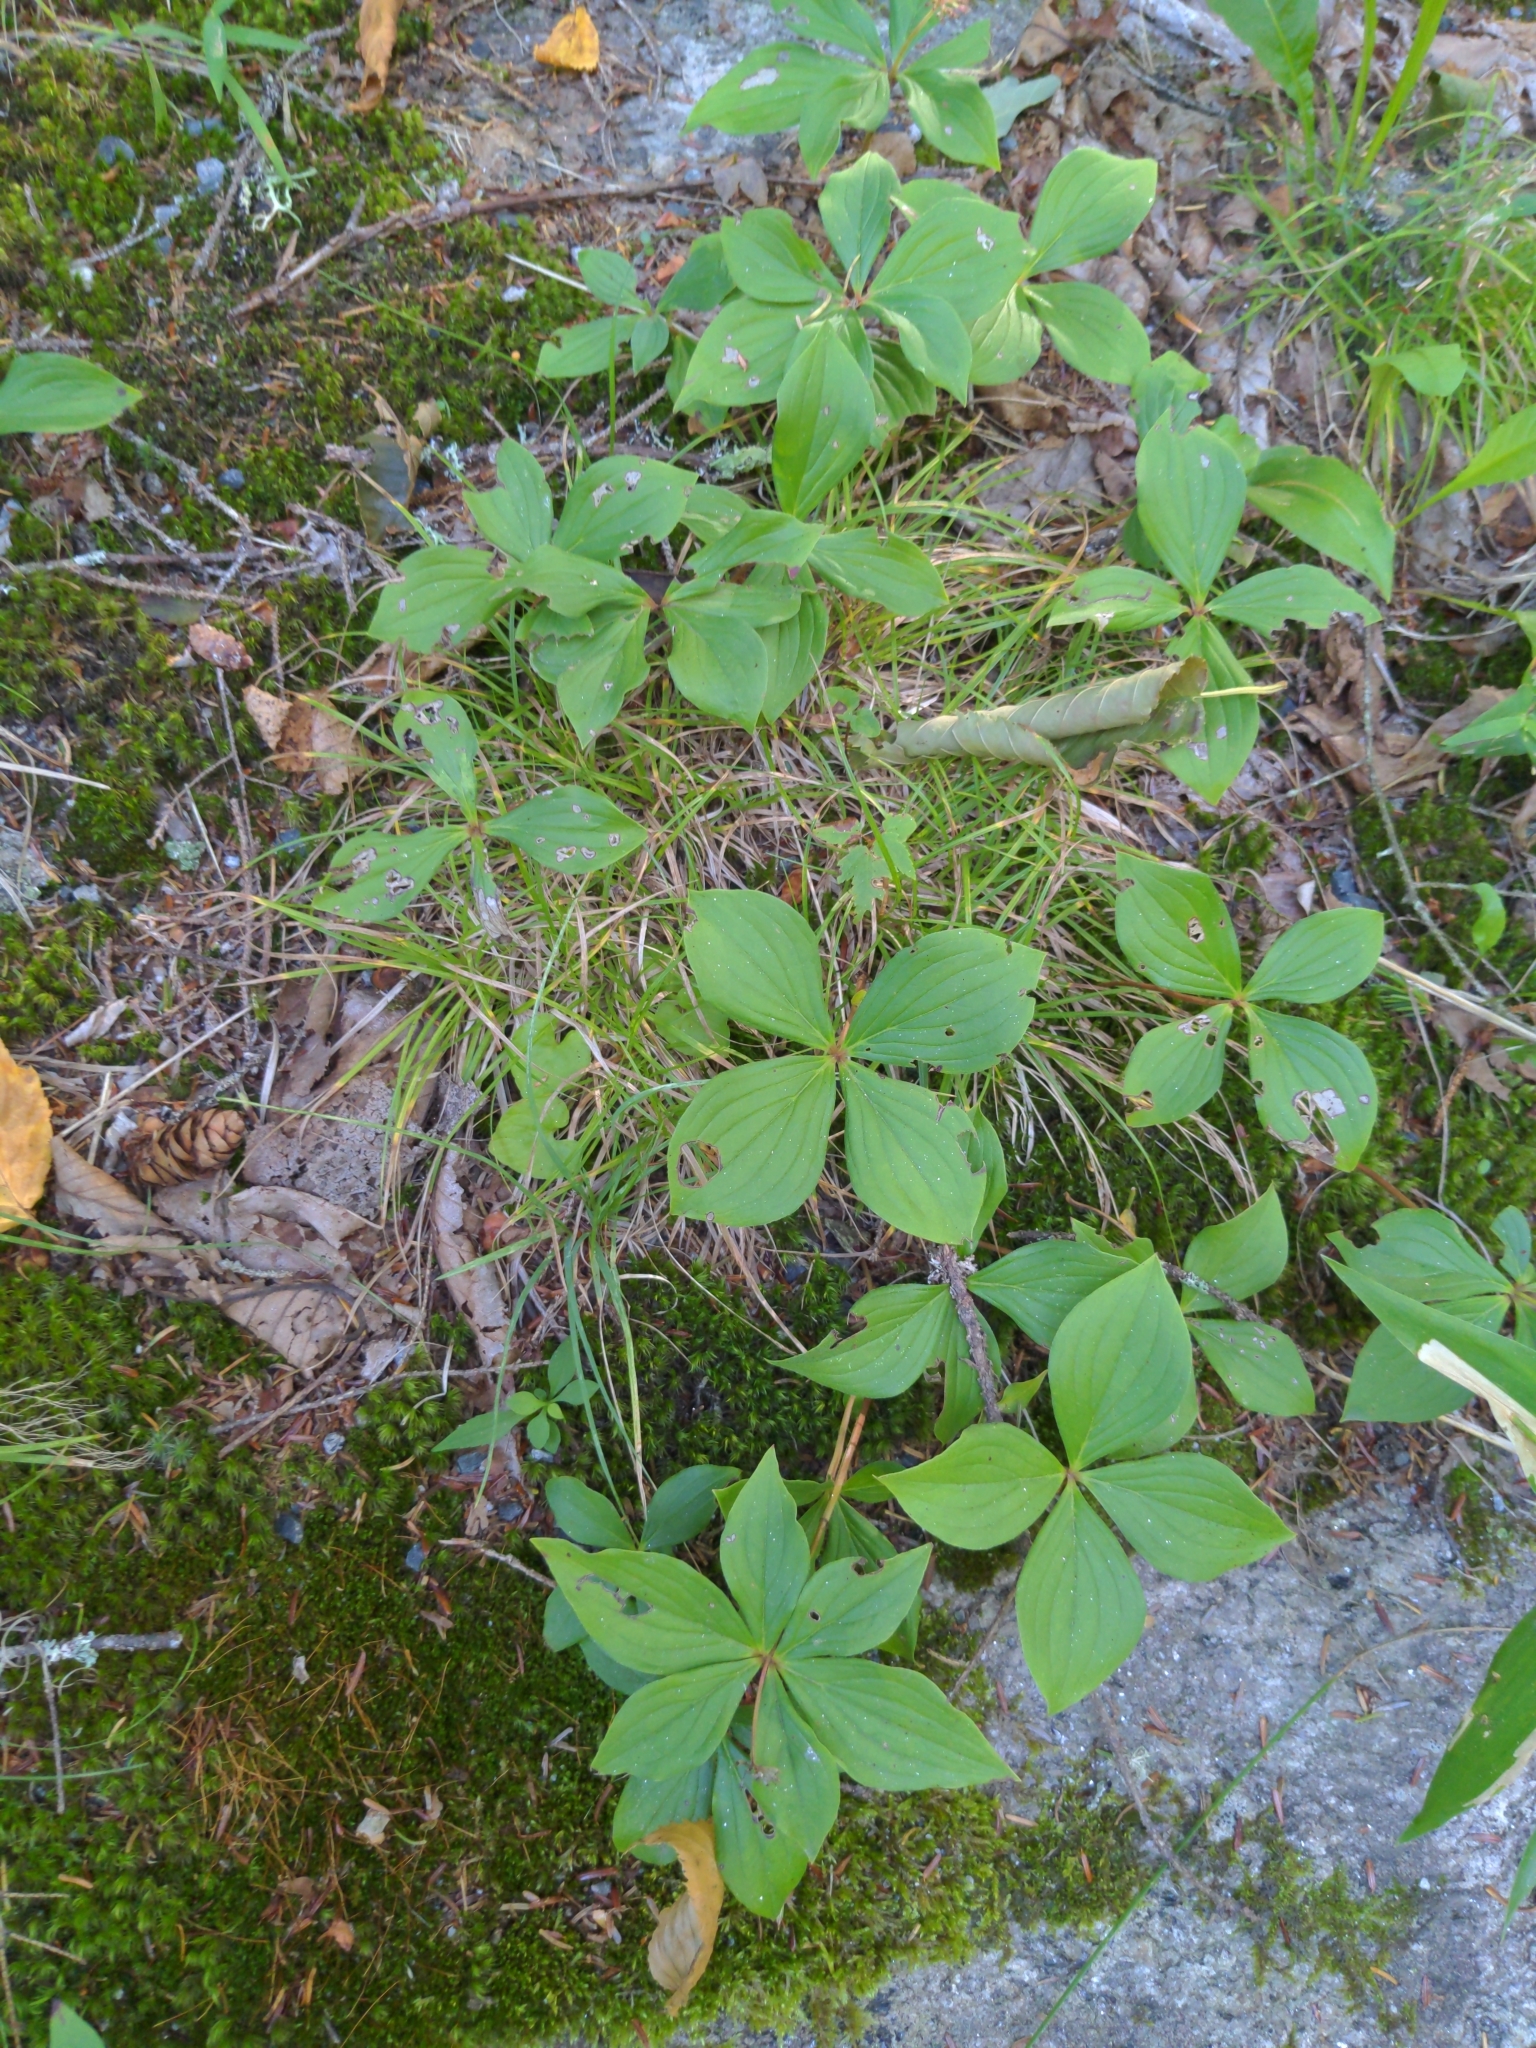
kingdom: Plantae
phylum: Tracheophyta
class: Magnoliopsida
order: Cornales
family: Cornaceae
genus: Cornus
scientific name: Cornus canadensis
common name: Creeping dogwood
